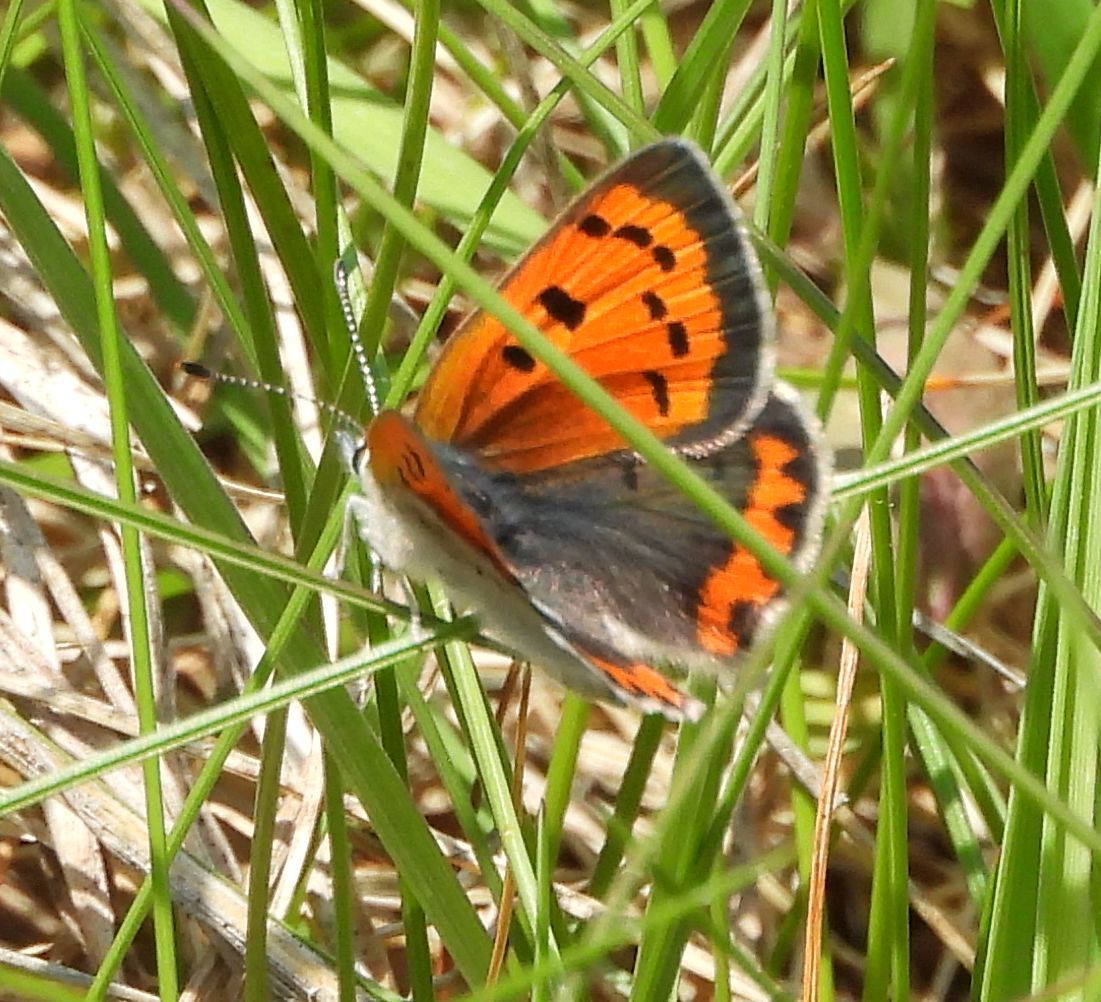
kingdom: Animalia
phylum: Arthropoda
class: Insecta
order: Lepidoptera
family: Lycaenidae
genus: Lycaena
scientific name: Lycaena hypophlaeas
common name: American copper
